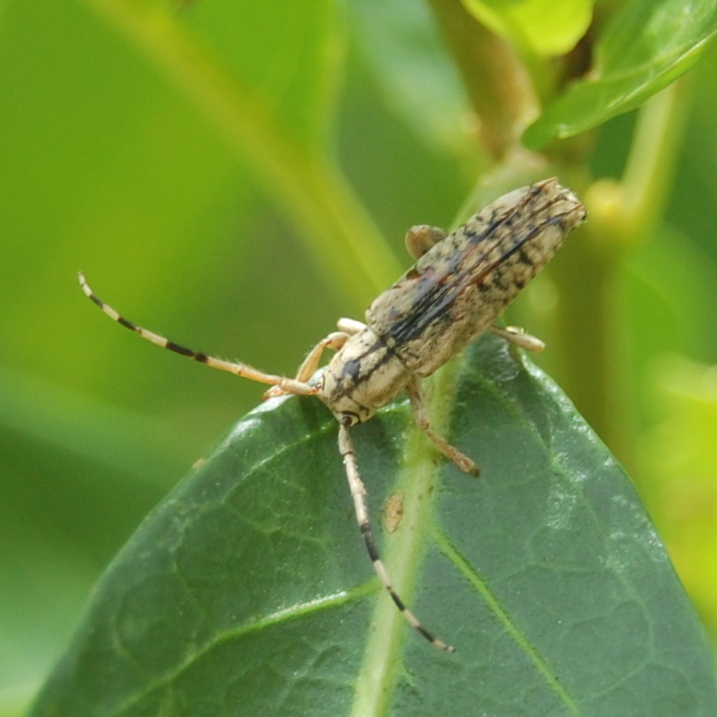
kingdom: Animalia
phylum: Arthropoda
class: Insecta
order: Coleoptera
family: Cerambycidae
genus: Bisaltes
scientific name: Bisaltes subreticulatus
